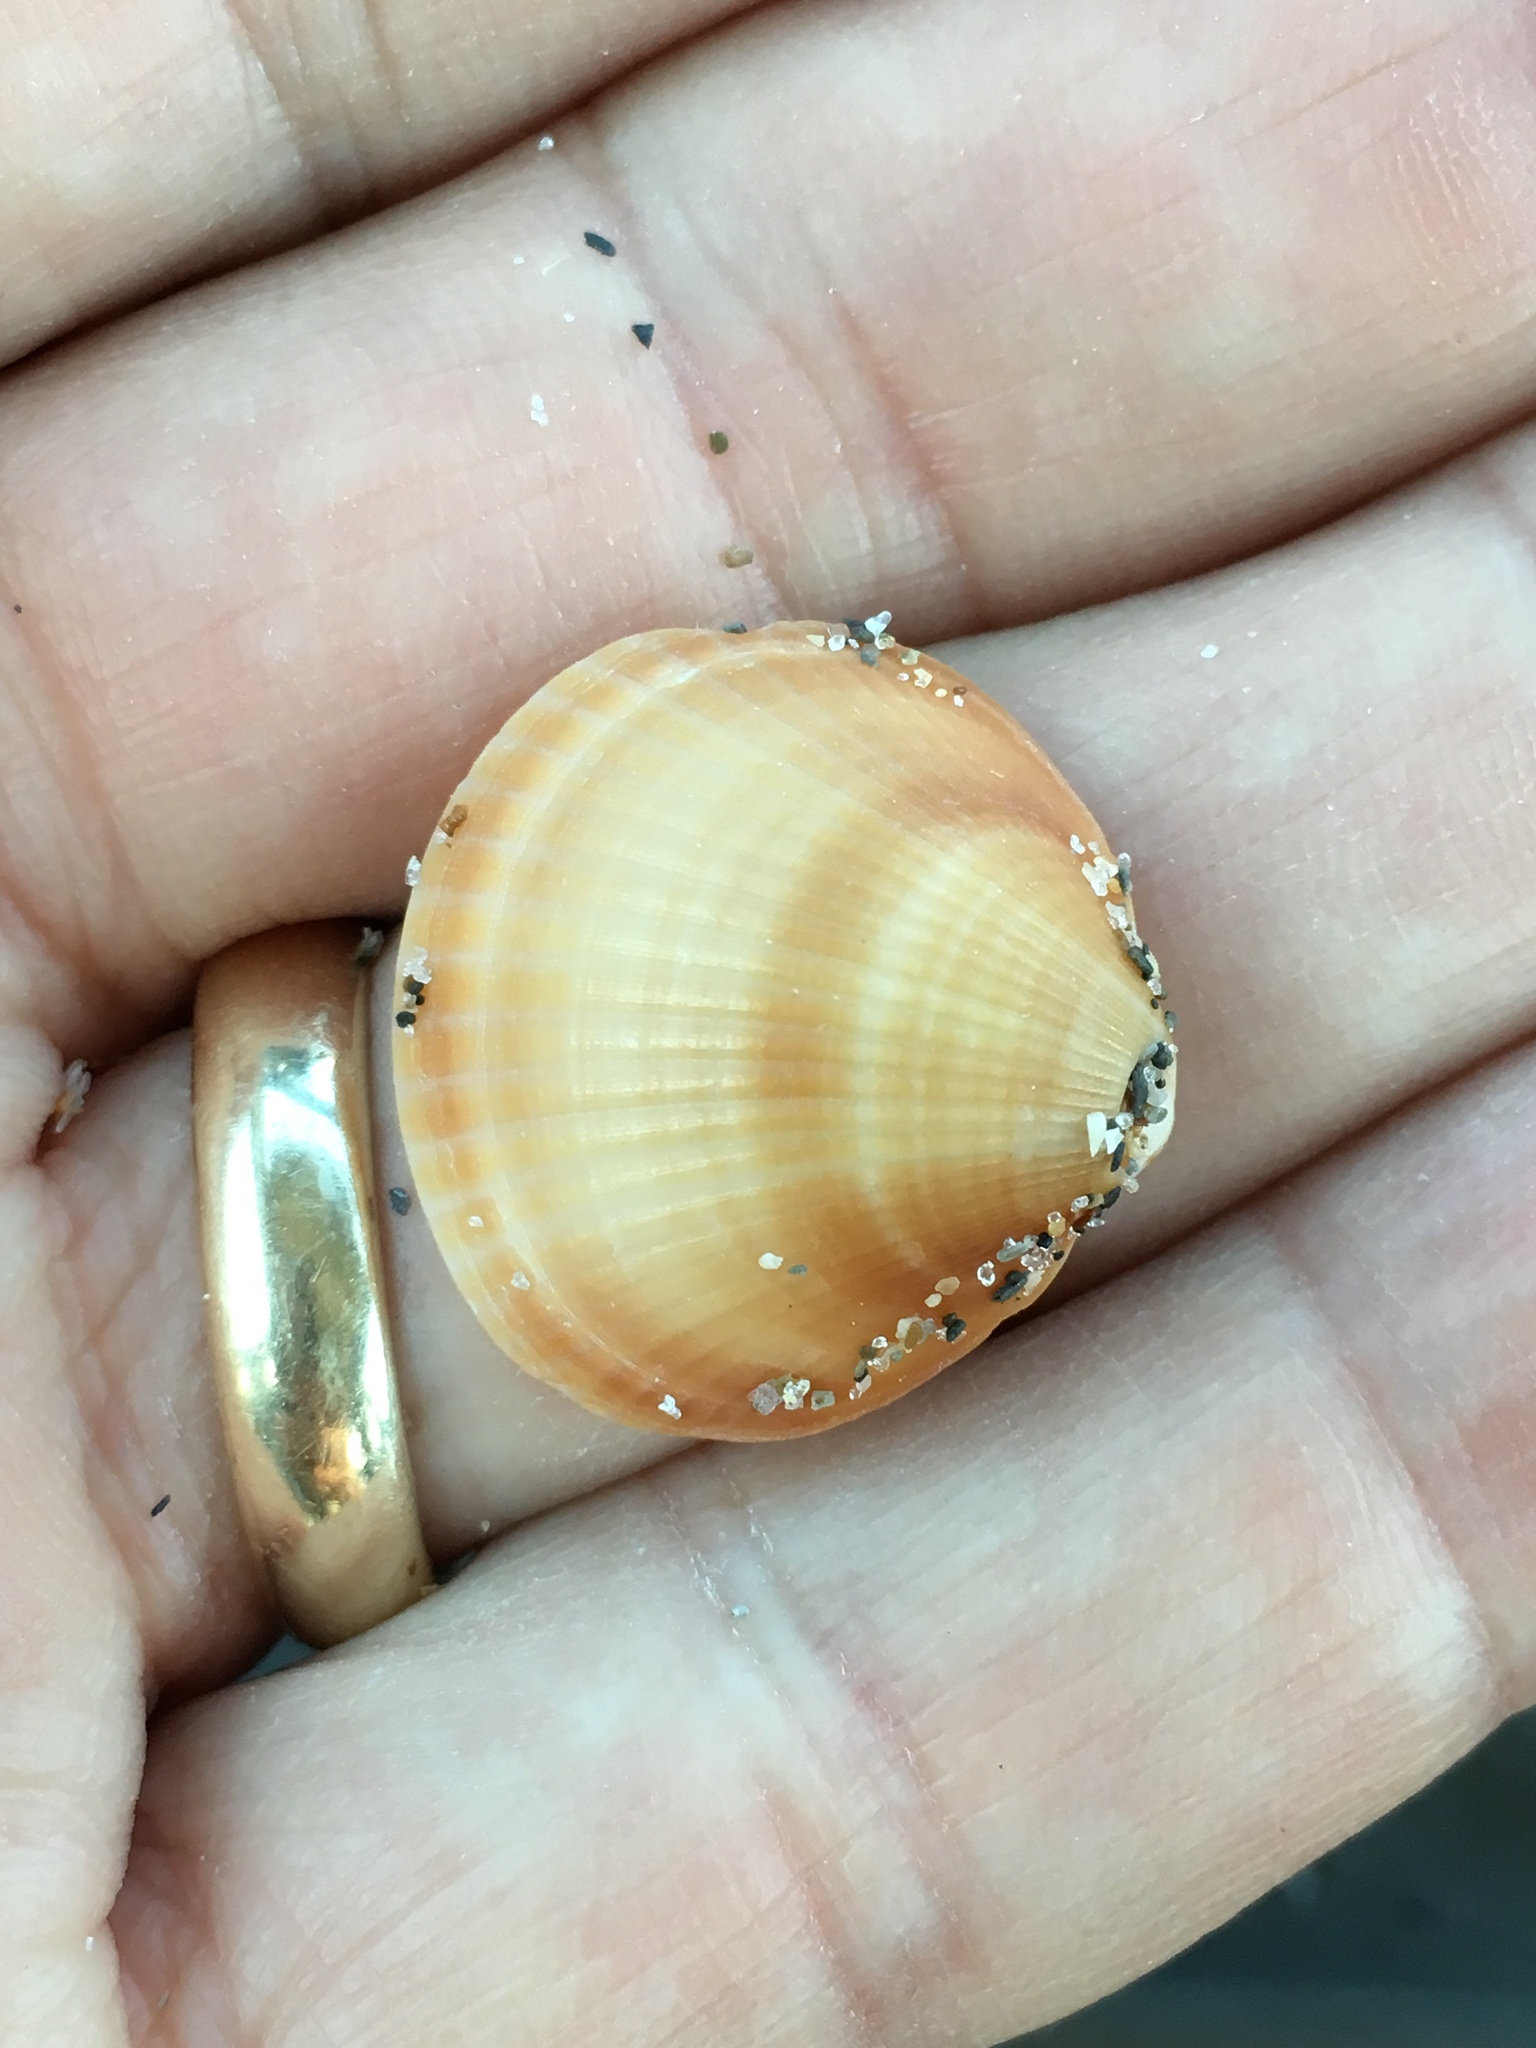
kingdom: Animalia
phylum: Mollusca
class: Bivalvia
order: Arcida
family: Glycymerididae
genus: Glycymeris
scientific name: Glycymeris spectralis
